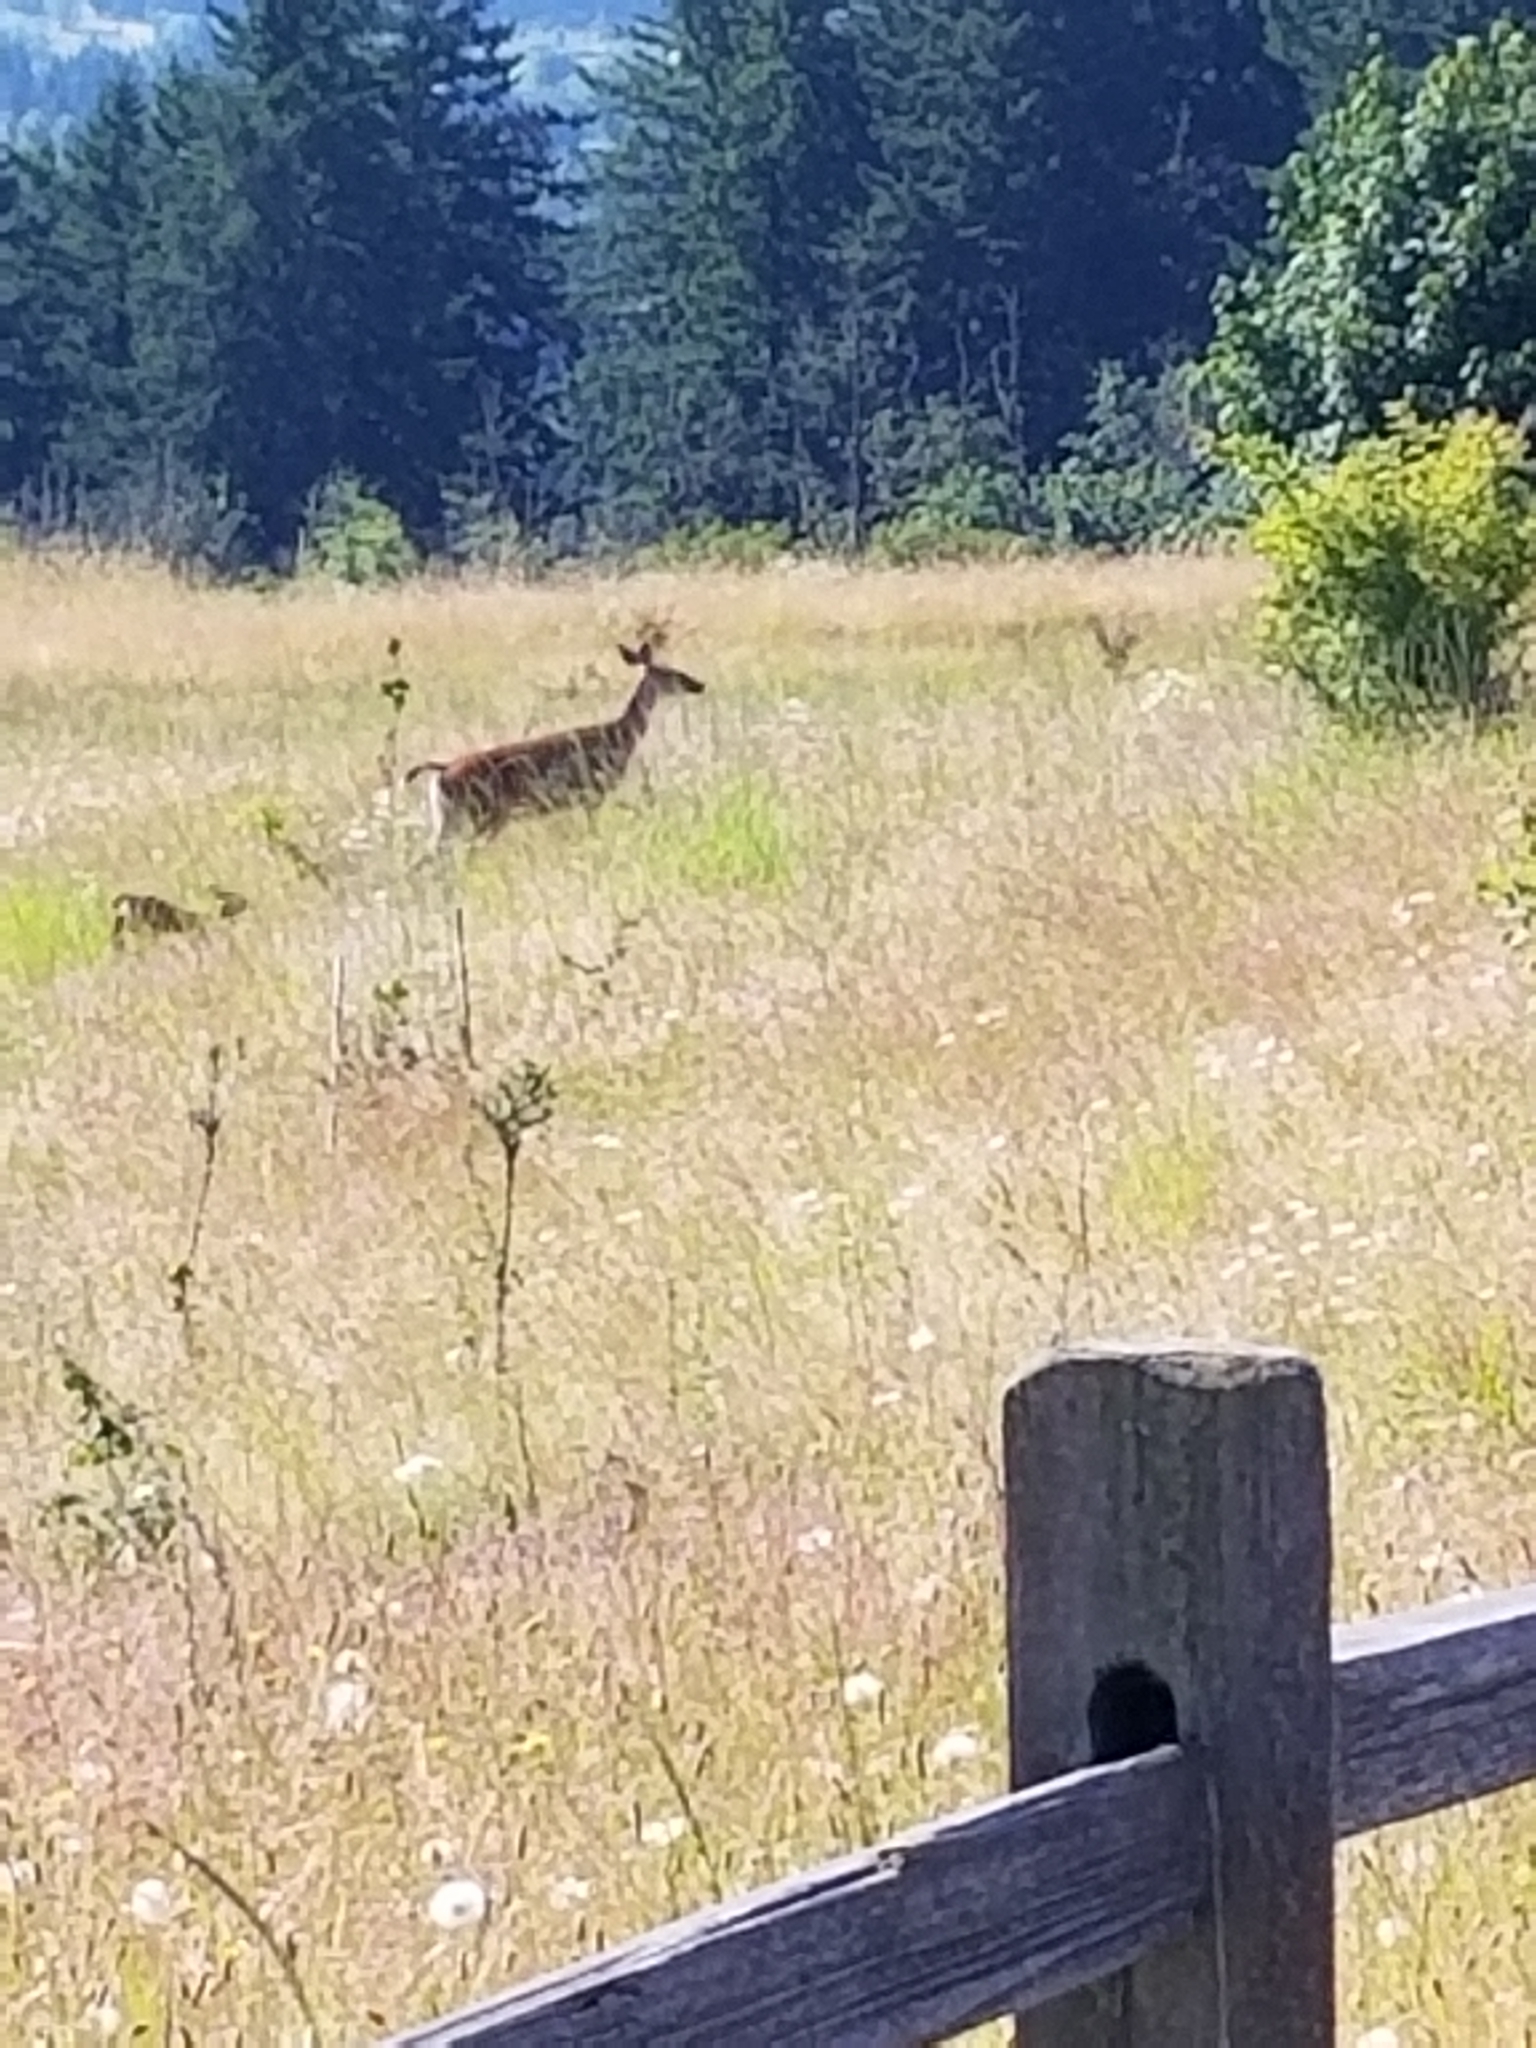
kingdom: Animalia
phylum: Chordata
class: Mammalia
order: Artiodactyla
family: Cervidae
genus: Odocoileus
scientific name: Odocoileus hemionus
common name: Mule deer
